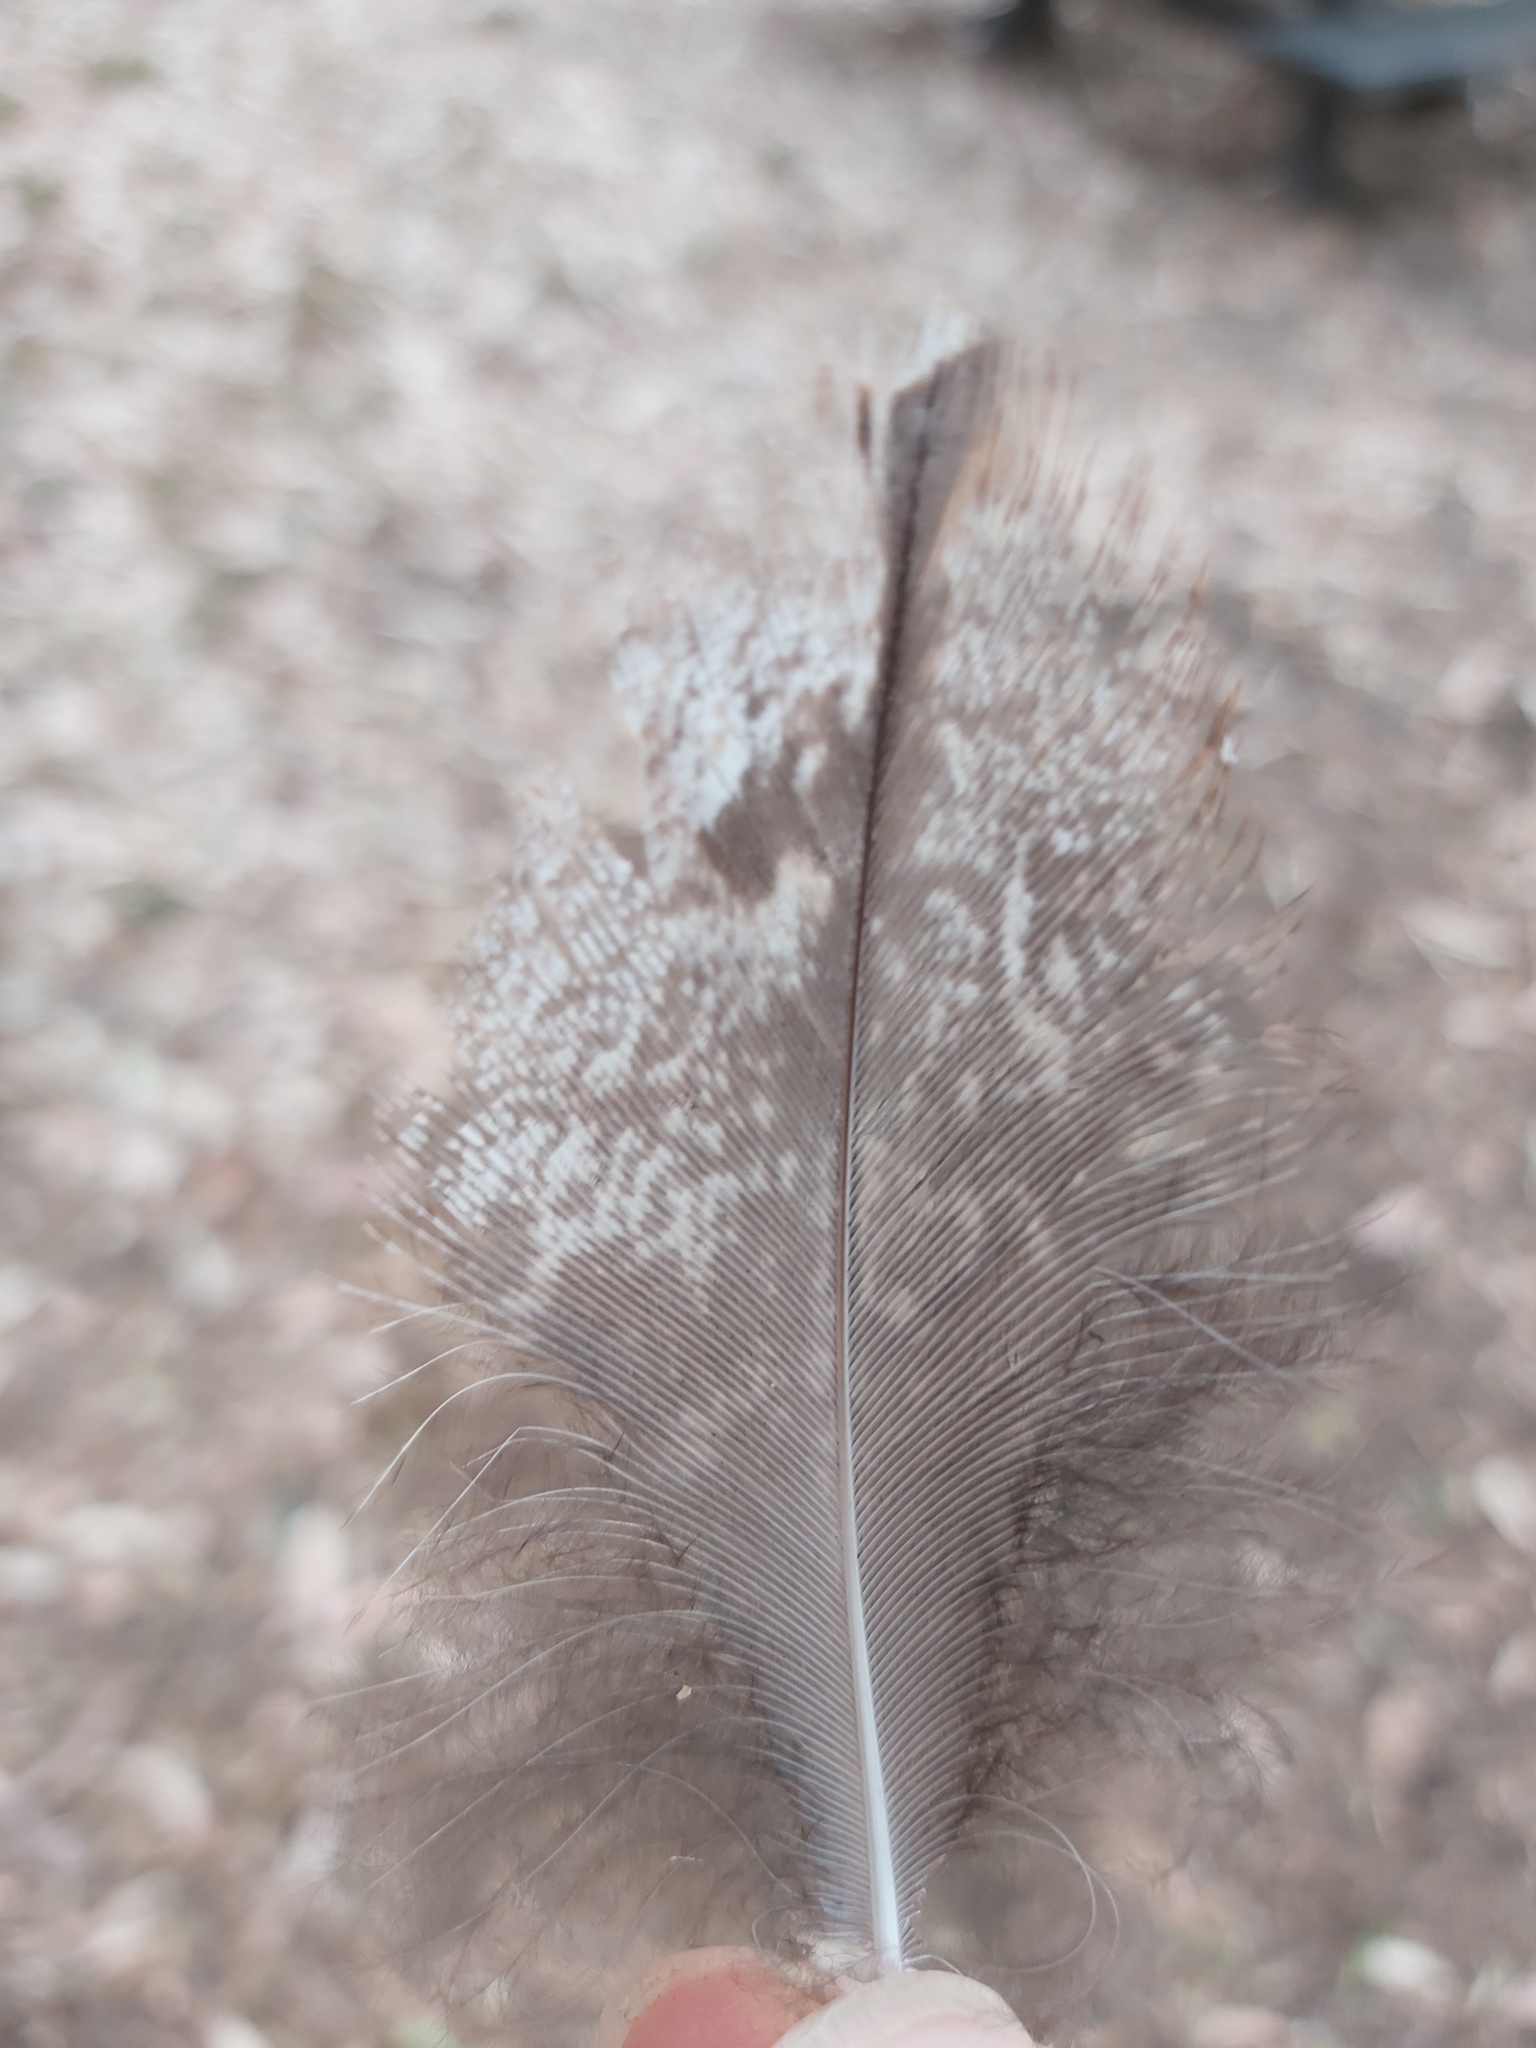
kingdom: Animalia
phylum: Chordata
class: Aves
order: Caprimulgiformes
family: Podargidae
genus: Podargus
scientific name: Podargus strigoides
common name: Tawny frogmouth
